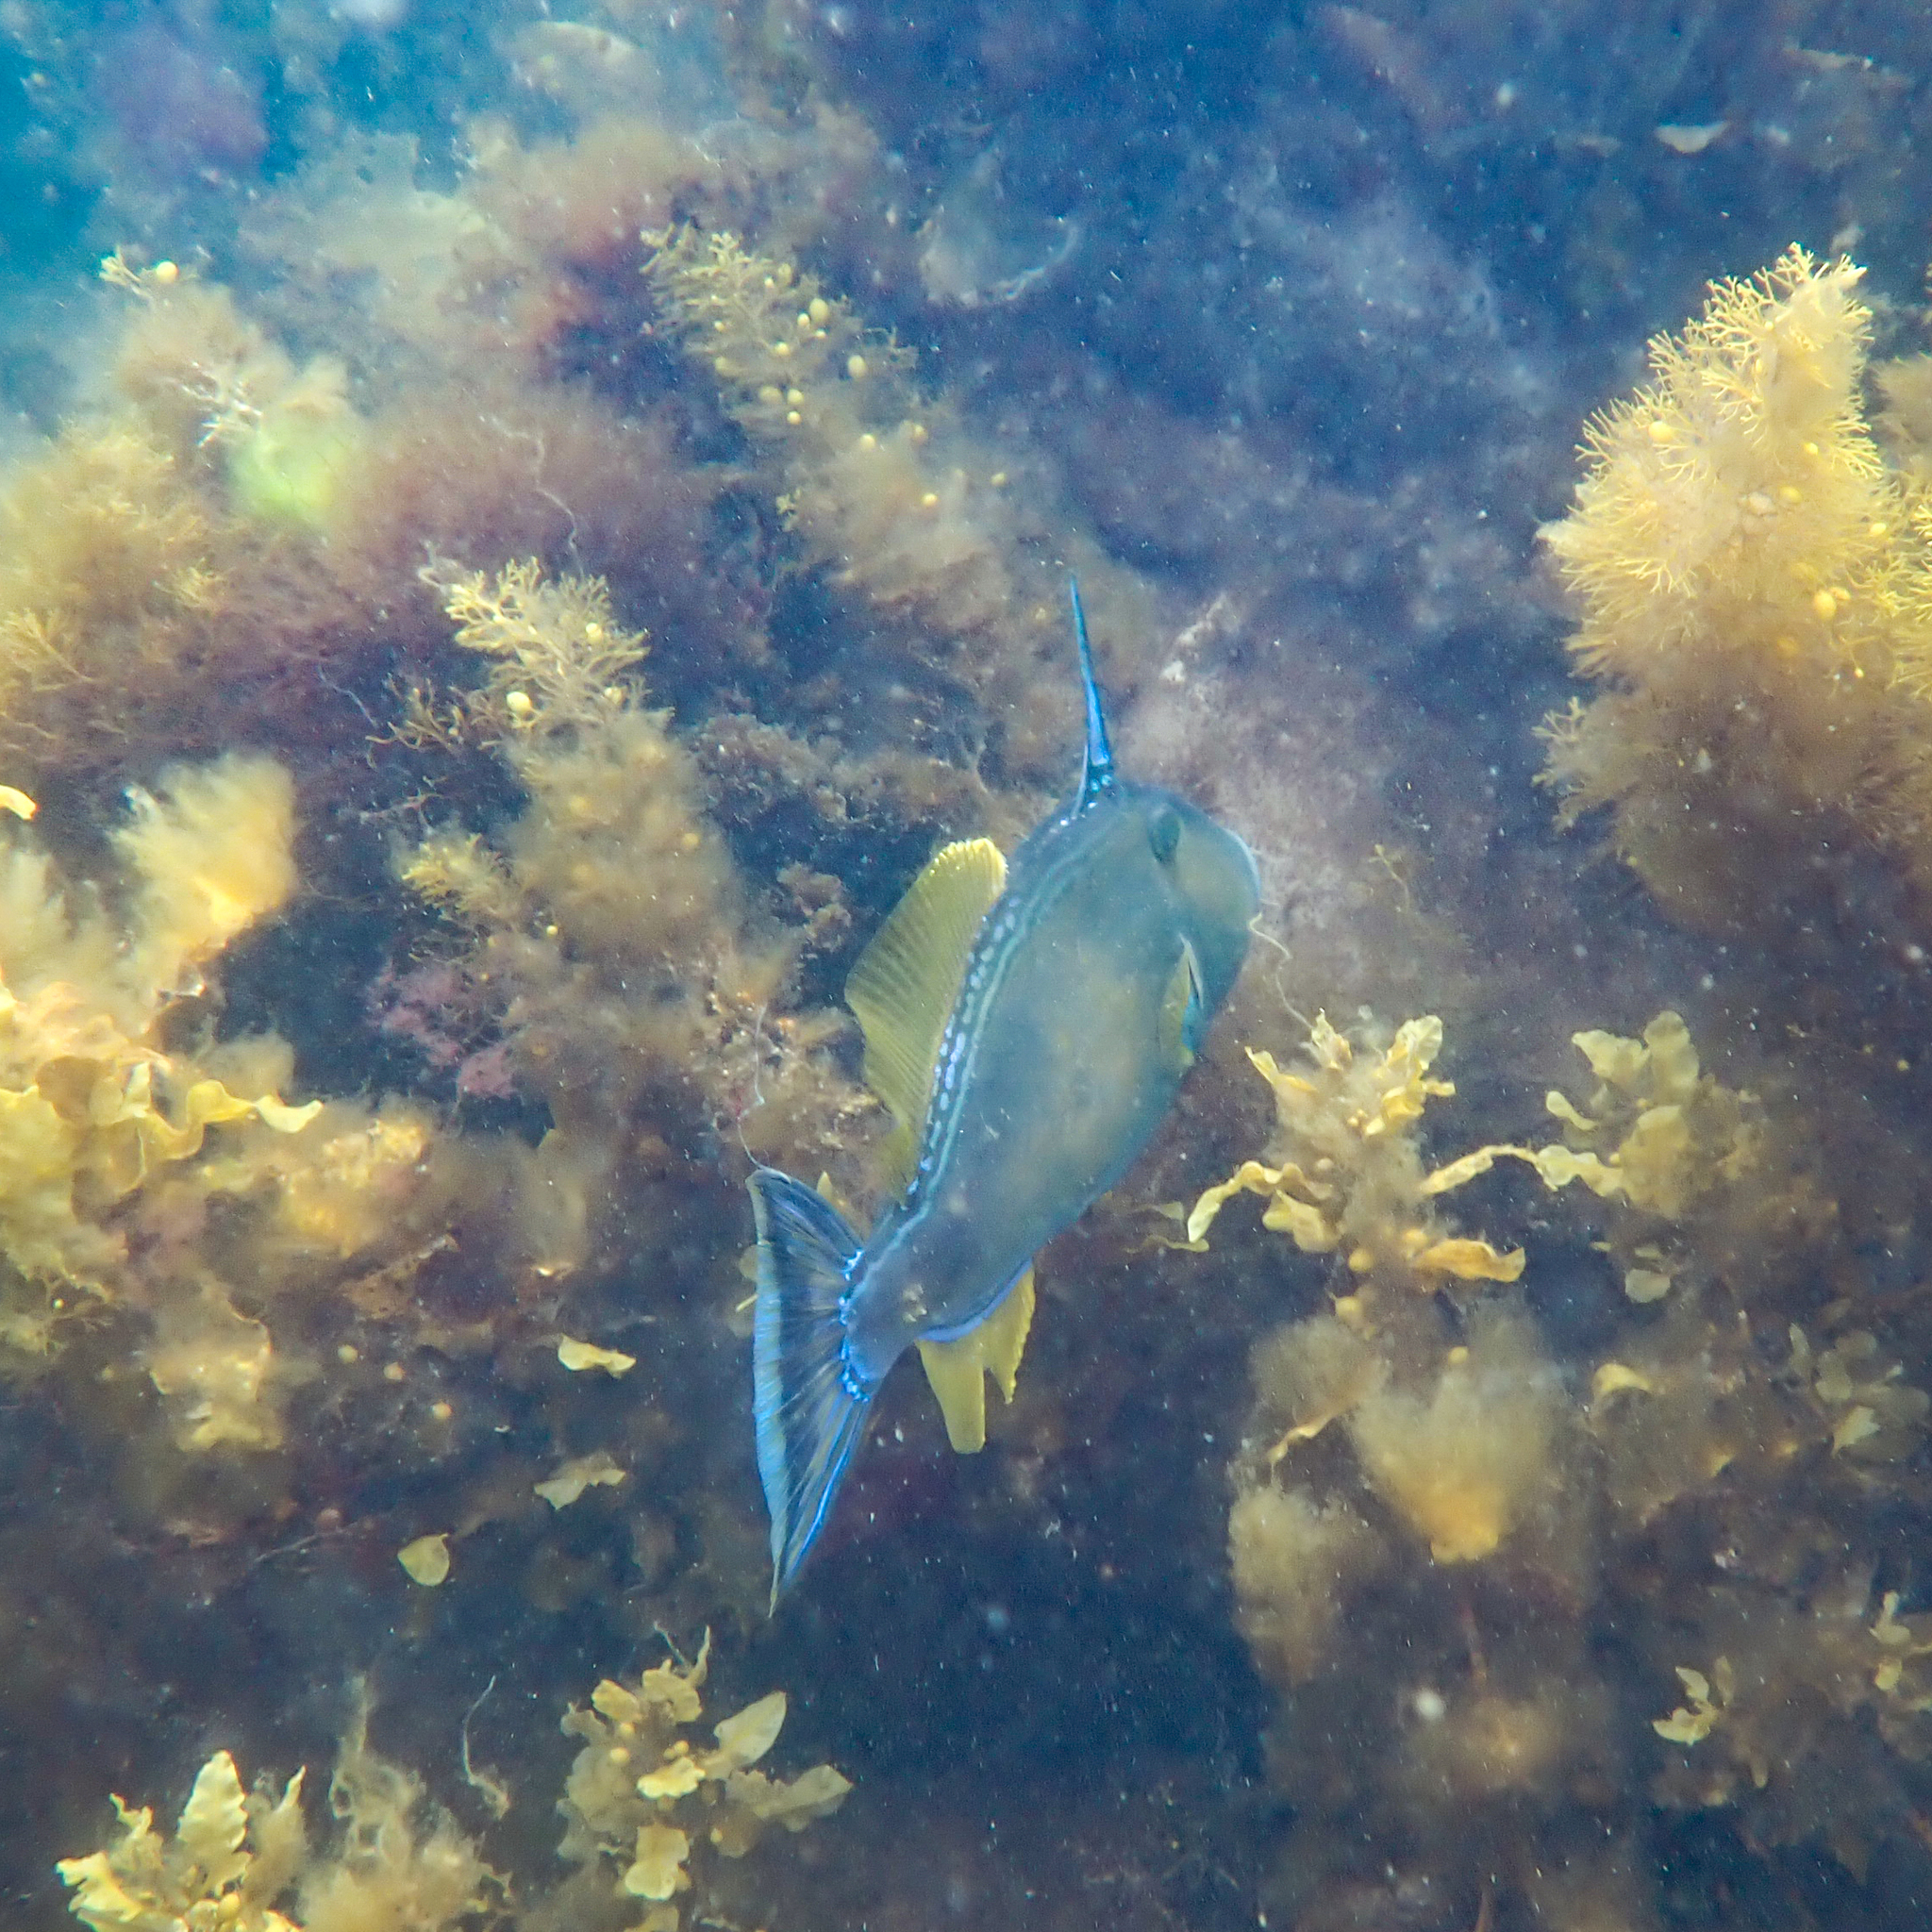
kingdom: Animalia
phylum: Chordata
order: Tetraodontiformes
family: Monacanthidae
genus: Meuschenia
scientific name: Meuschenia freycineti
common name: Freycinet's leatherjacket
